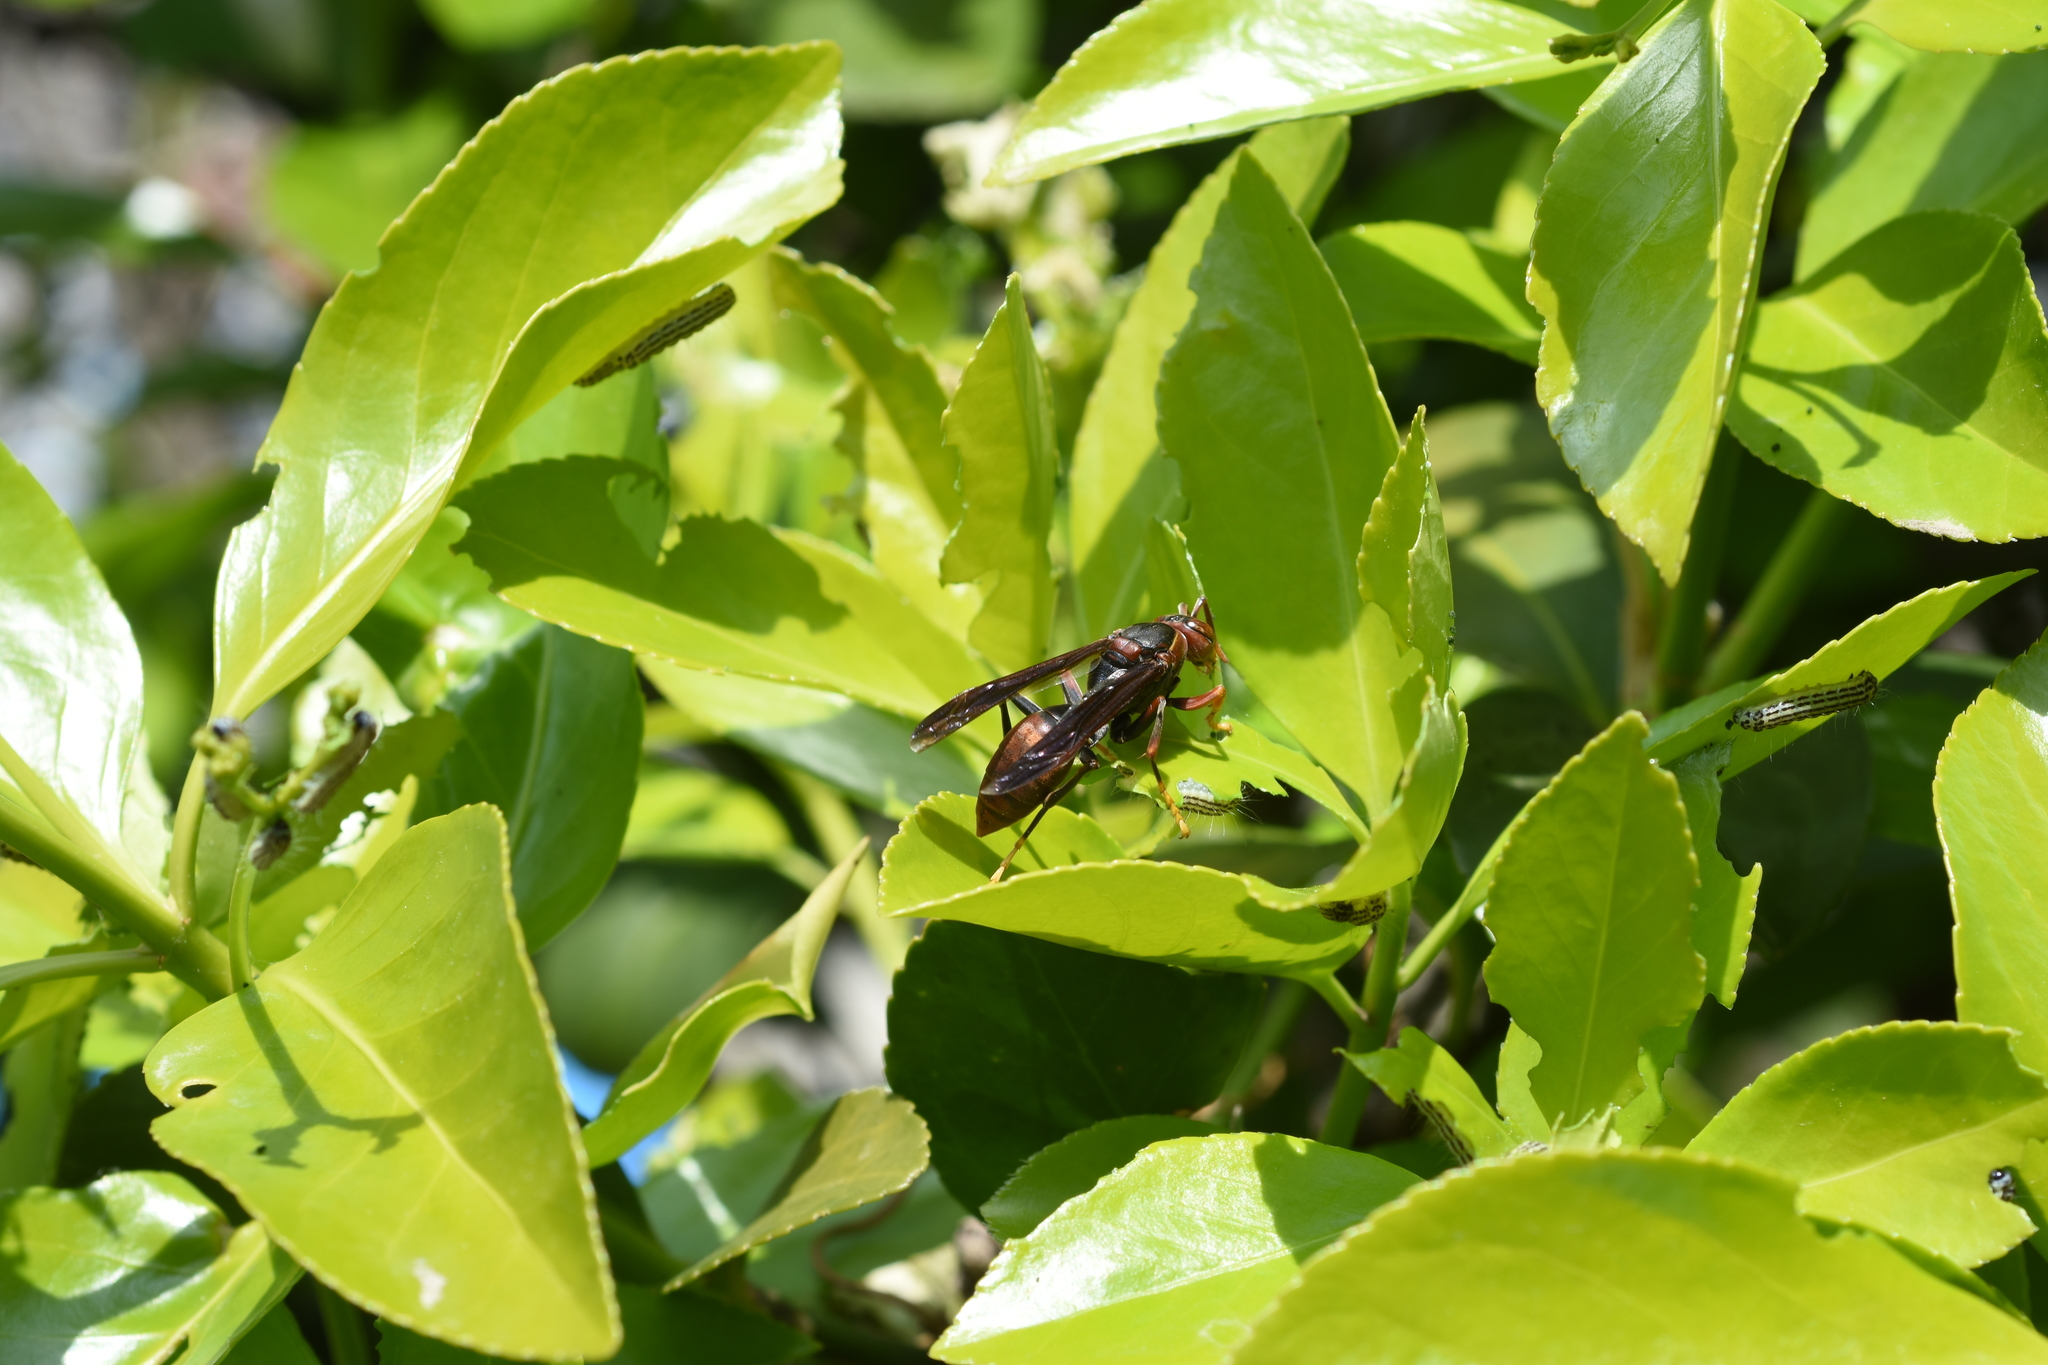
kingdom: Animalia
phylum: Arthropoda
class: Insecta
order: Hymenoptera
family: Eumenidae
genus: Polistes
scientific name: Polistes rothneyi
